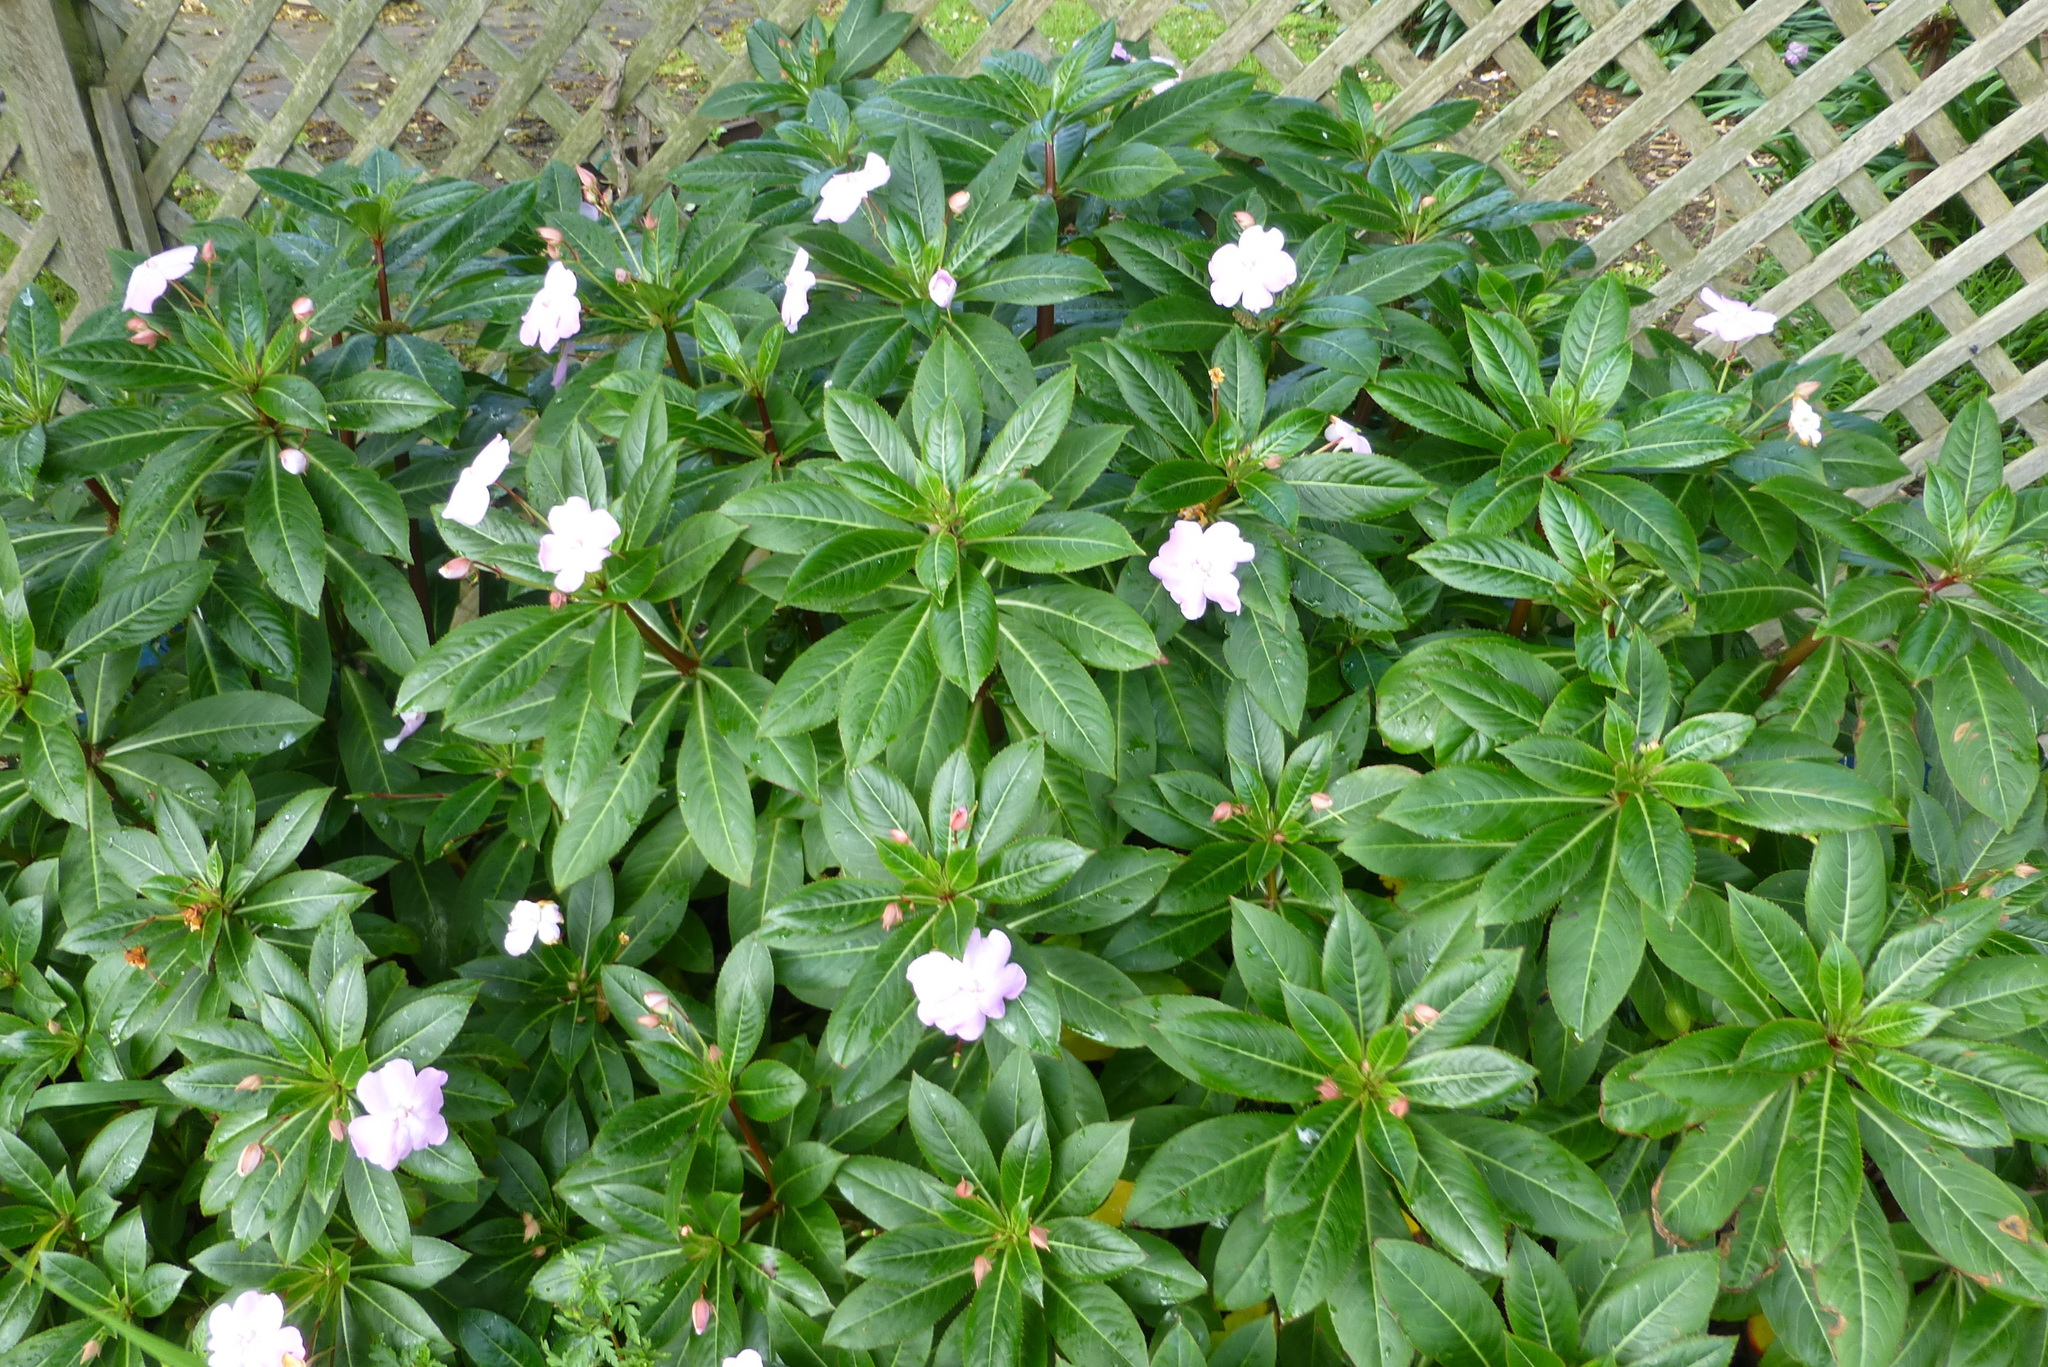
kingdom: Plantae
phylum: Tracheophyta
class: Magnoliopsida
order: Ericales
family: Balsaminaceae
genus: Impatiens
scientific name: Impatiens sodenii
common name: Oliver's touch-me-not
